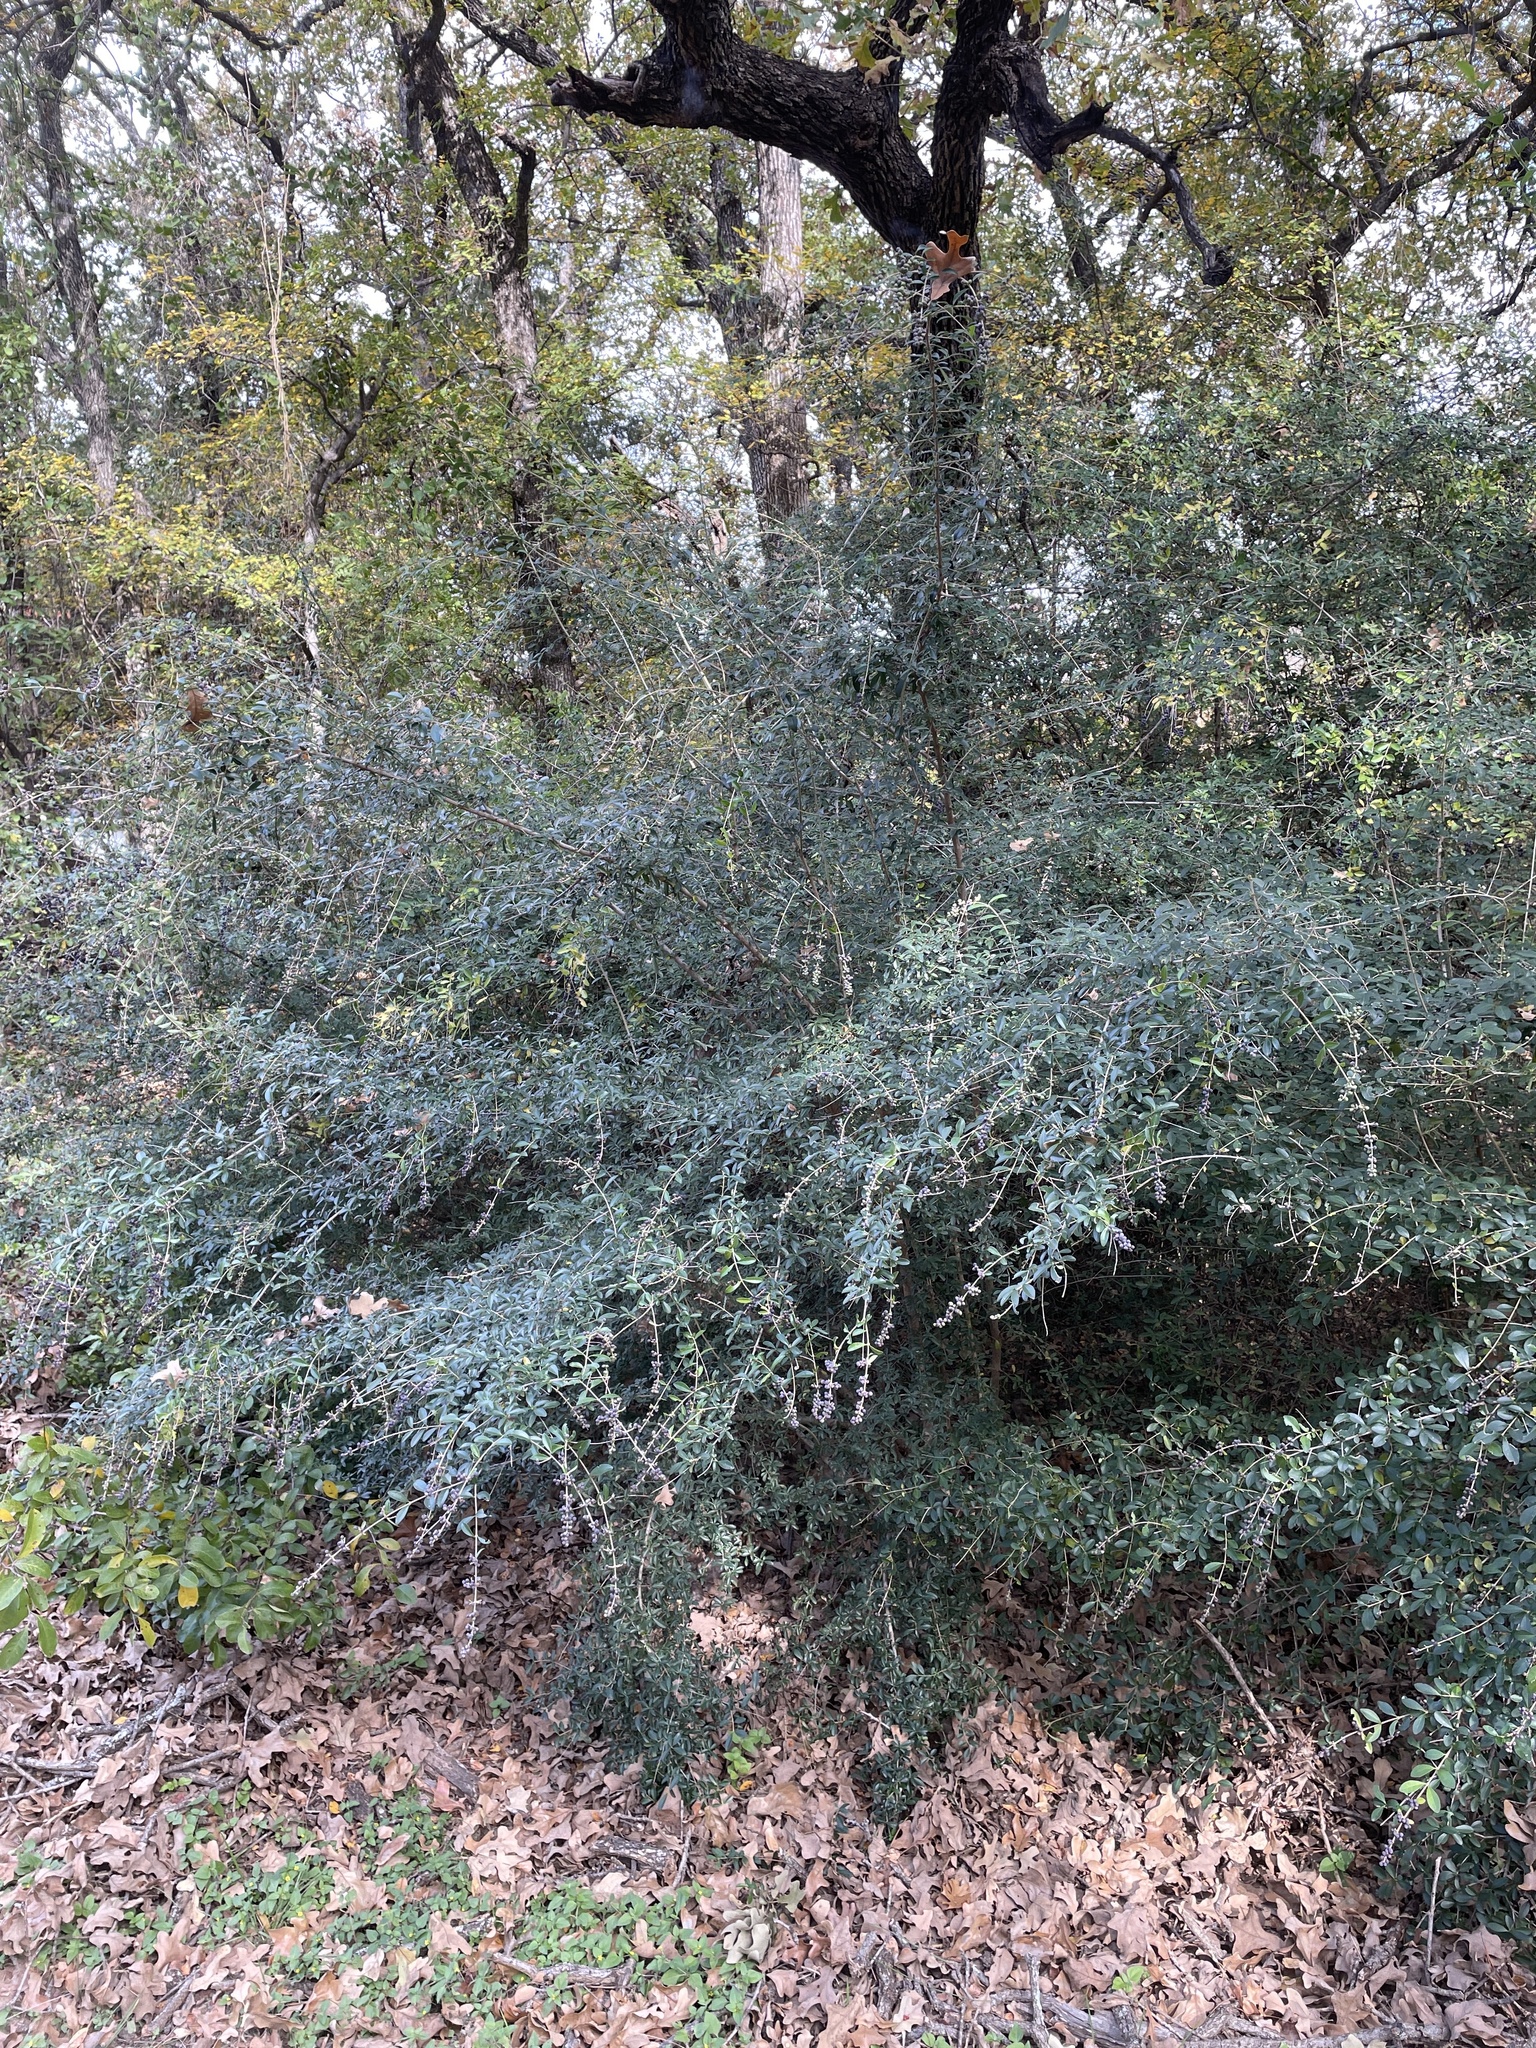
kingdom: Plantae
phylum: Tracheophyta
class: Magnoliopsida
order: Lamiales
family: Oleaceae
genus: Ligustrum
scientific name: Ligustrum quihoui
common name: Waxyleaf privet
